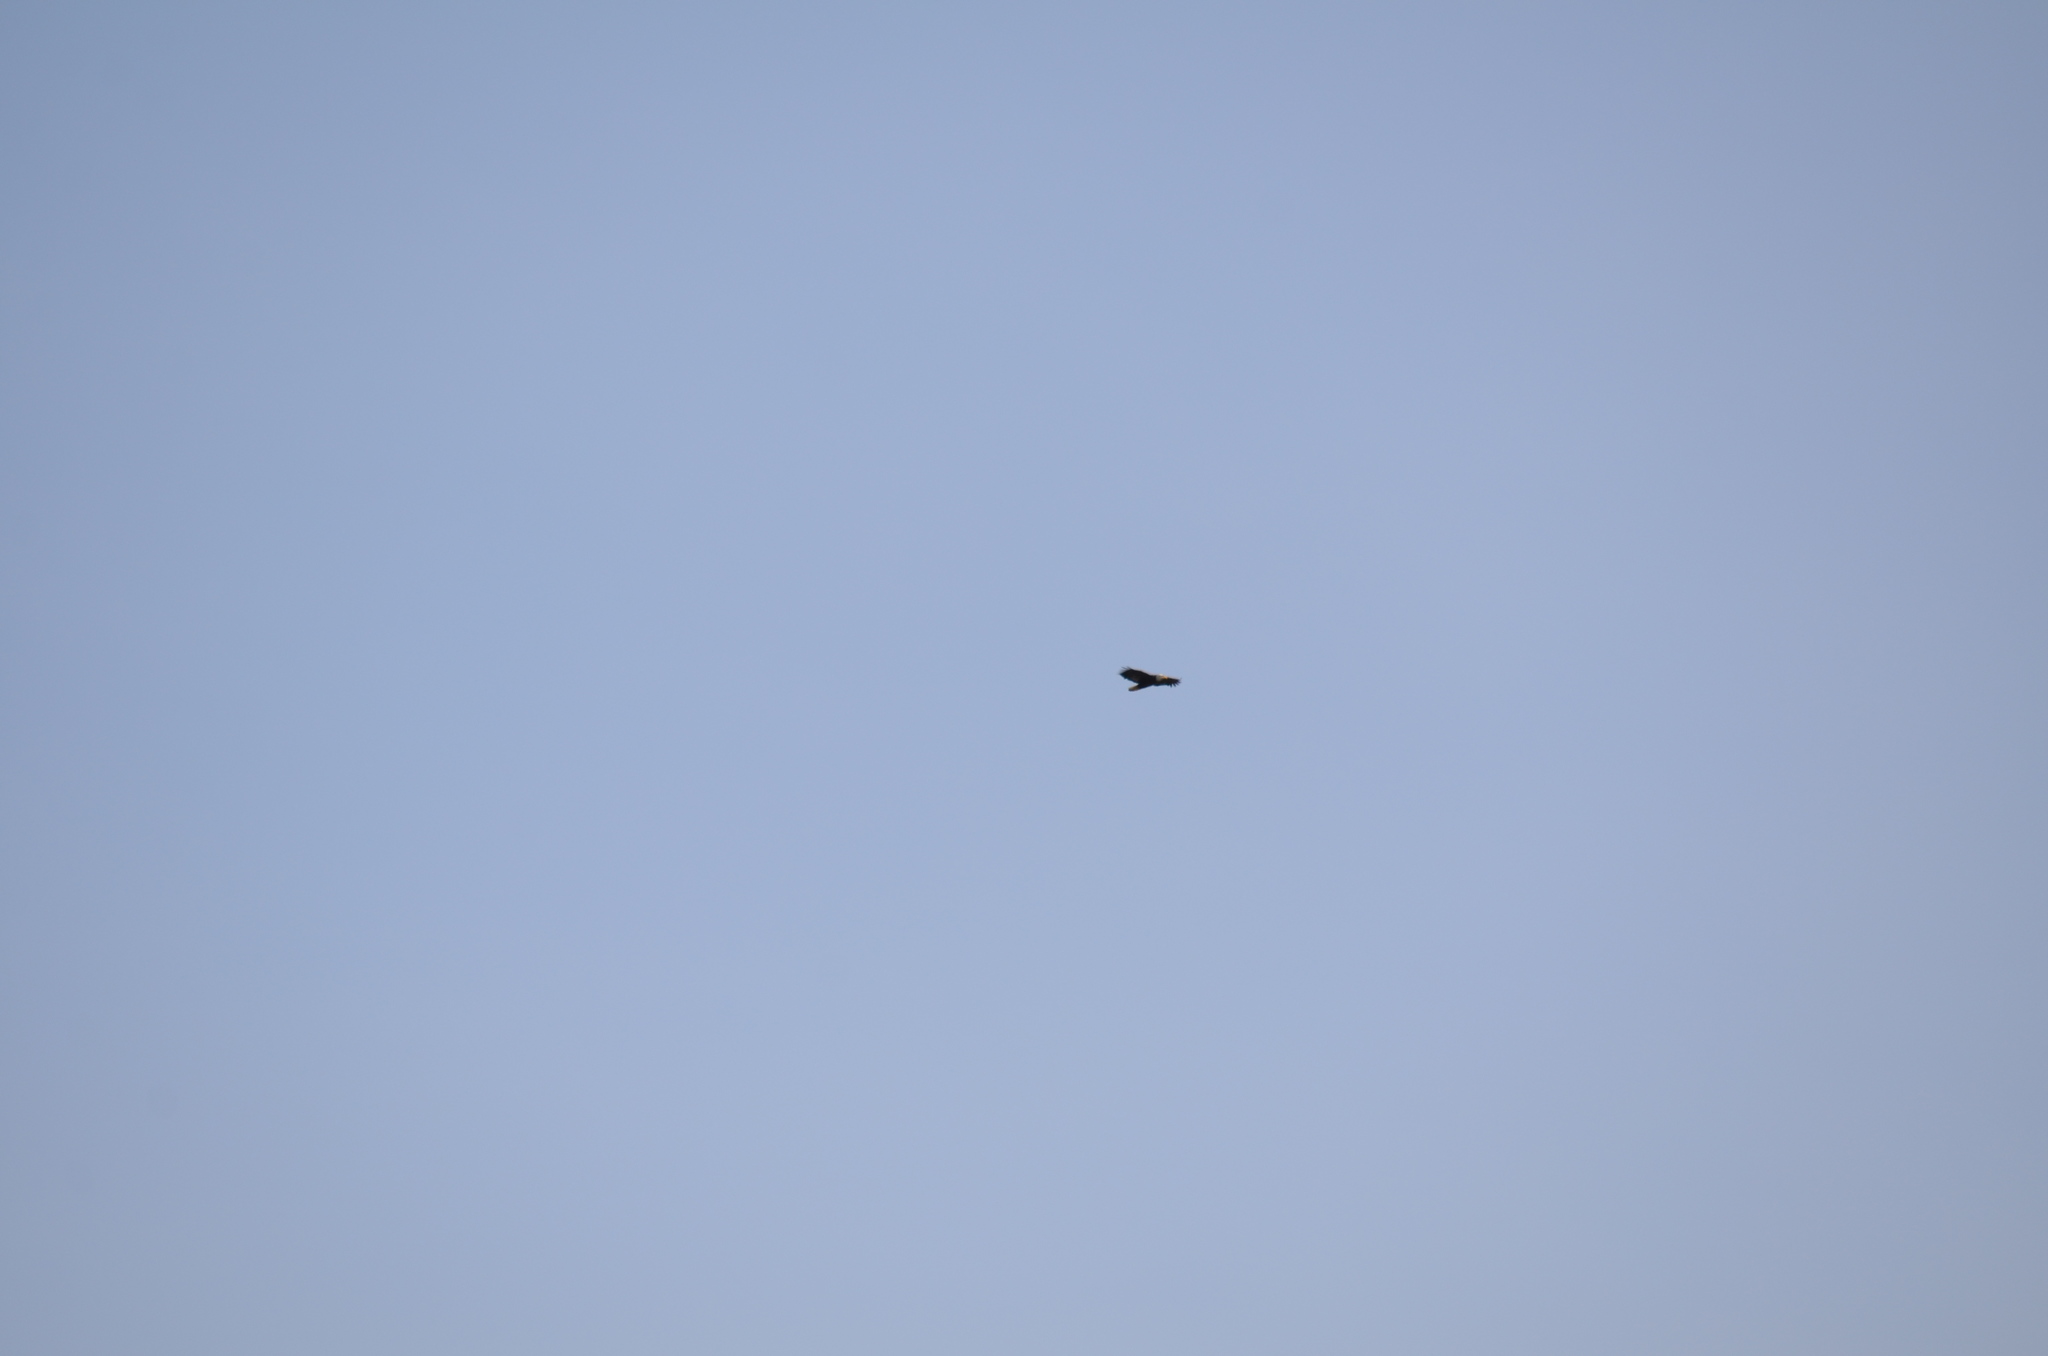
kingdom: Animalia
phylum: Chordata
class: Aves
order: Accipitriformes
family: Accipitridae
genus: Haliaeetus
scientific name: Haliaeetus leucocephalus
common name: Bald eagle
